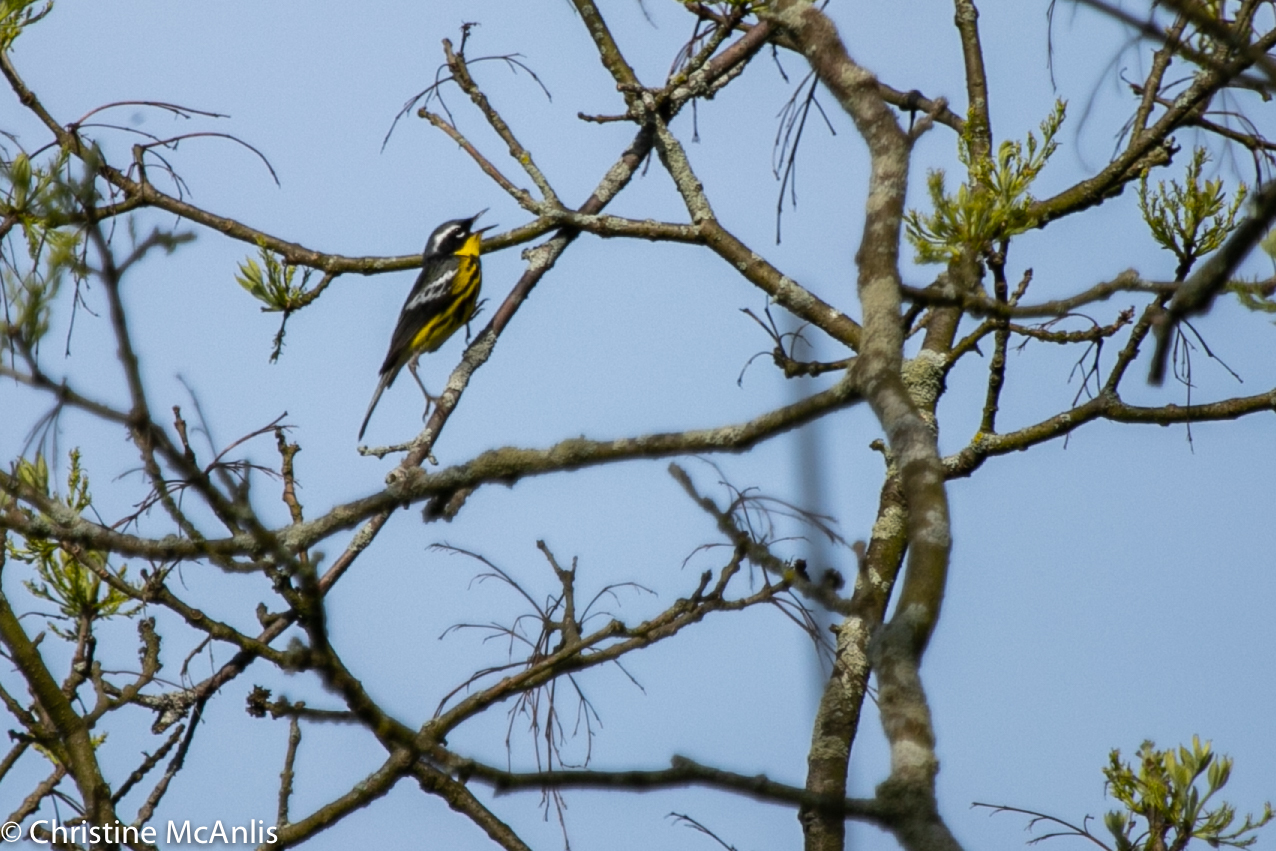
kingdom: Animalia
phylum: Chordata
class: Aves
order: Passeriformes
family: Parulidae
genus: Setophaga
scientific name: Setophaga magnolia
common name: Magnolia warbler
